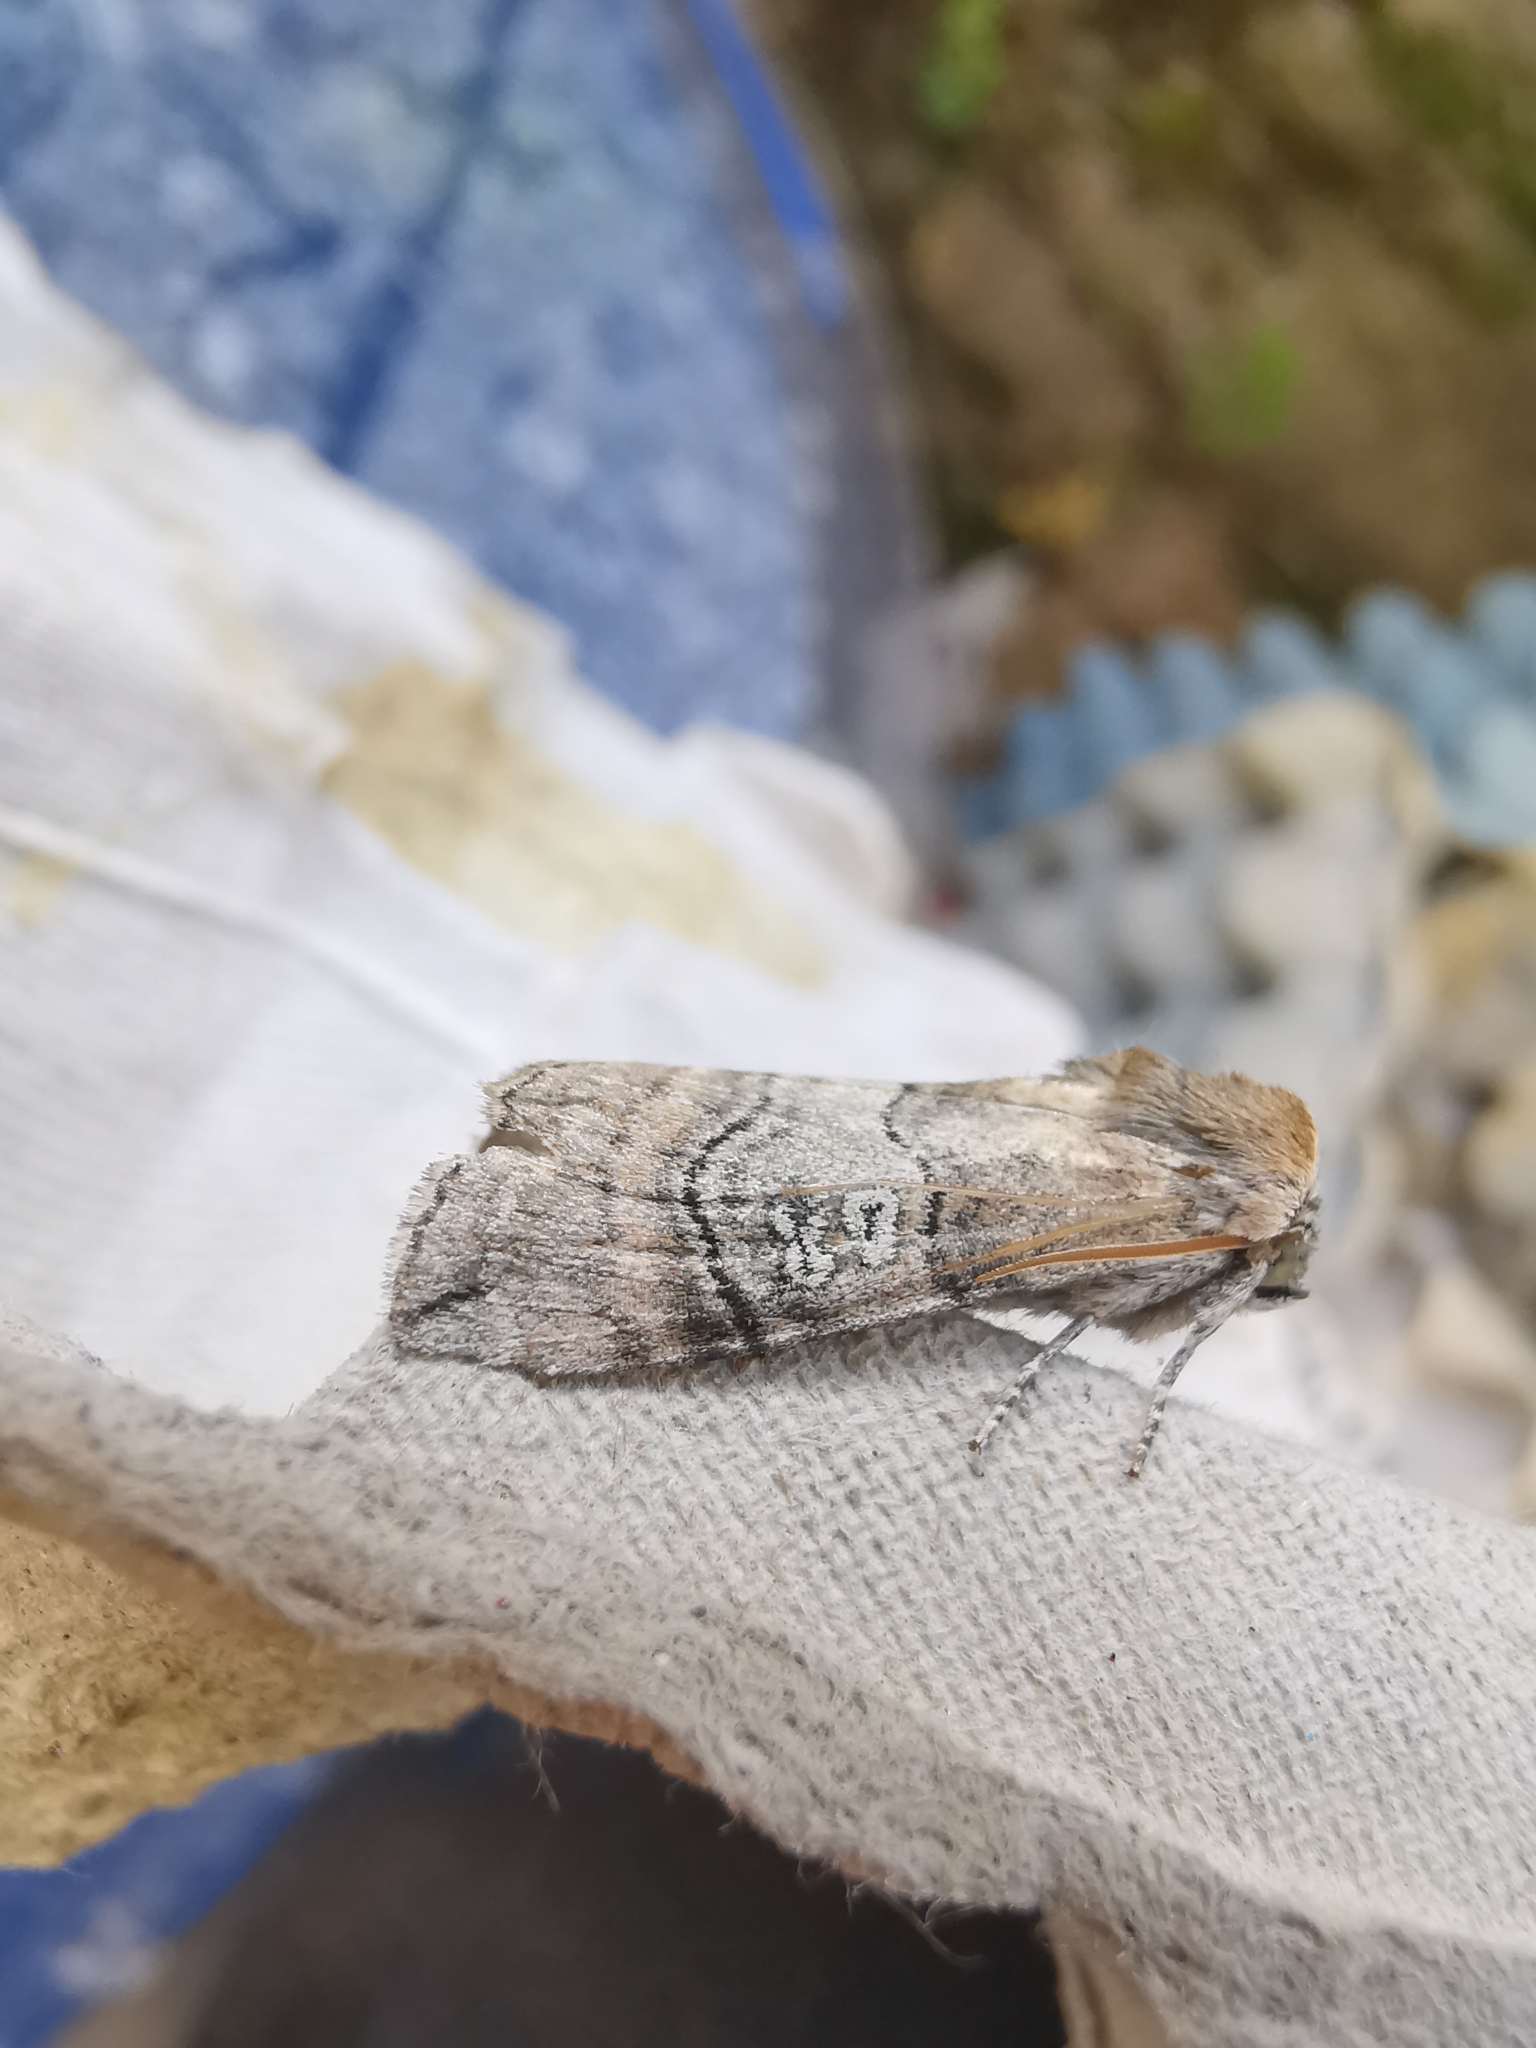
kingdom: Animalia
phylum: Arthropoda
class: Insecta
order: Lepidoptera
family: Drepanidae
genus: Tethea
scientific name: Tethea ocularis
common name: Figure of eighty
